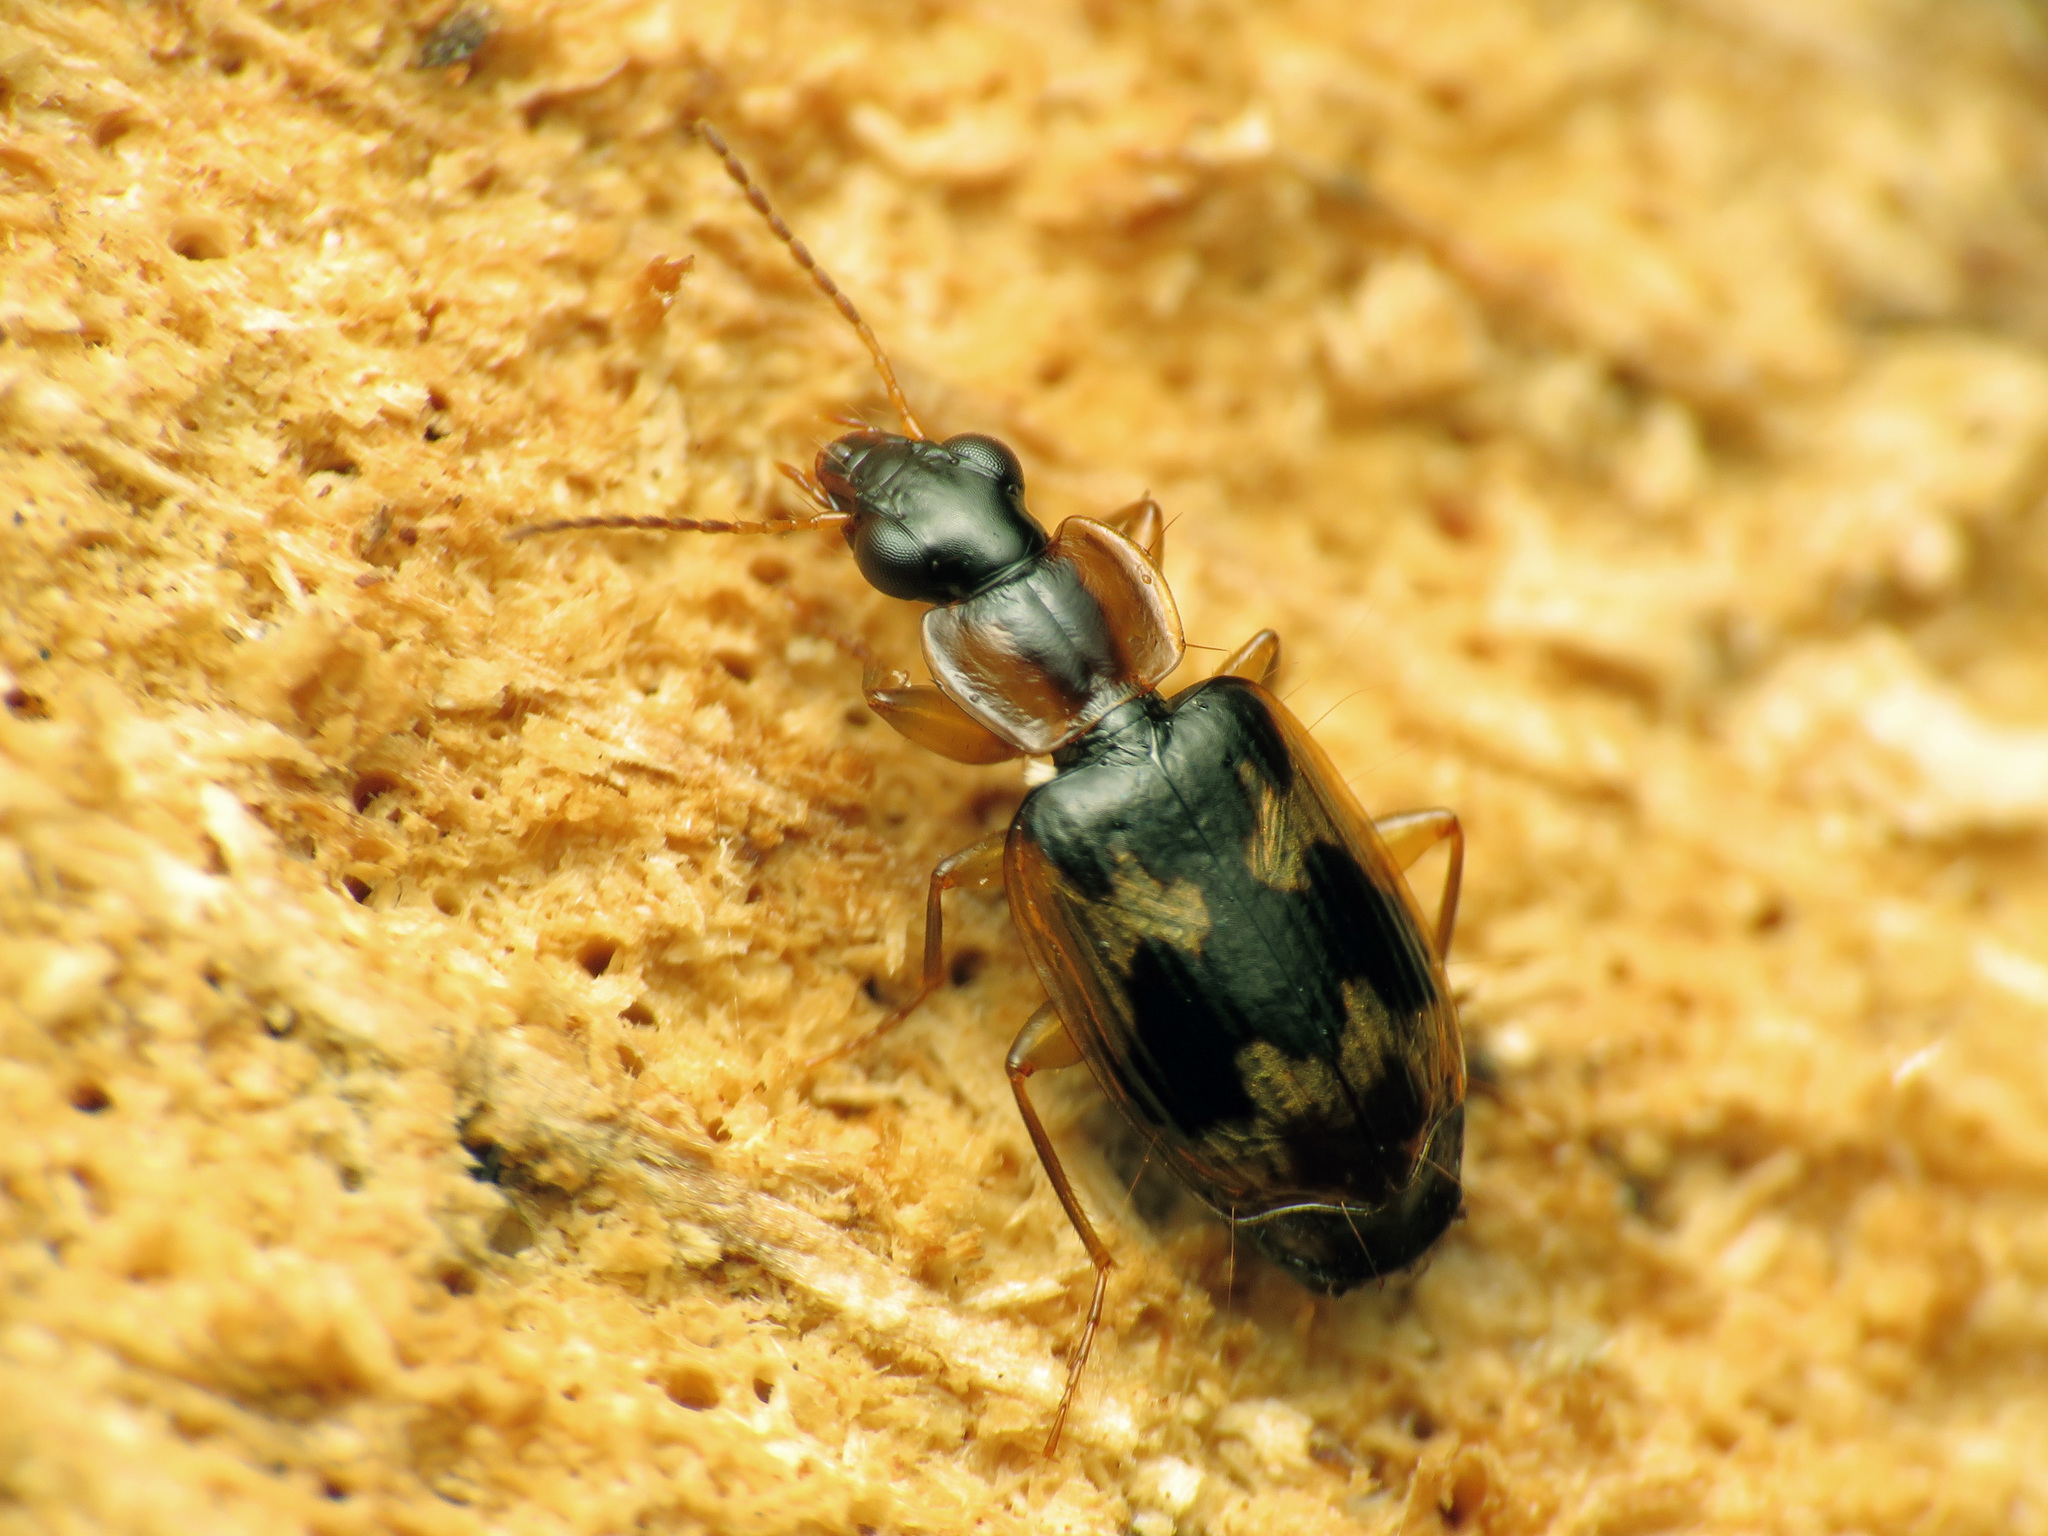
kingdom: Animalia
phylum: Arthropoda
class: Insecta
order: Coleoptera
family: Carabidae
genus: Phloeoxena
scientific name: Phloeoxena signata
